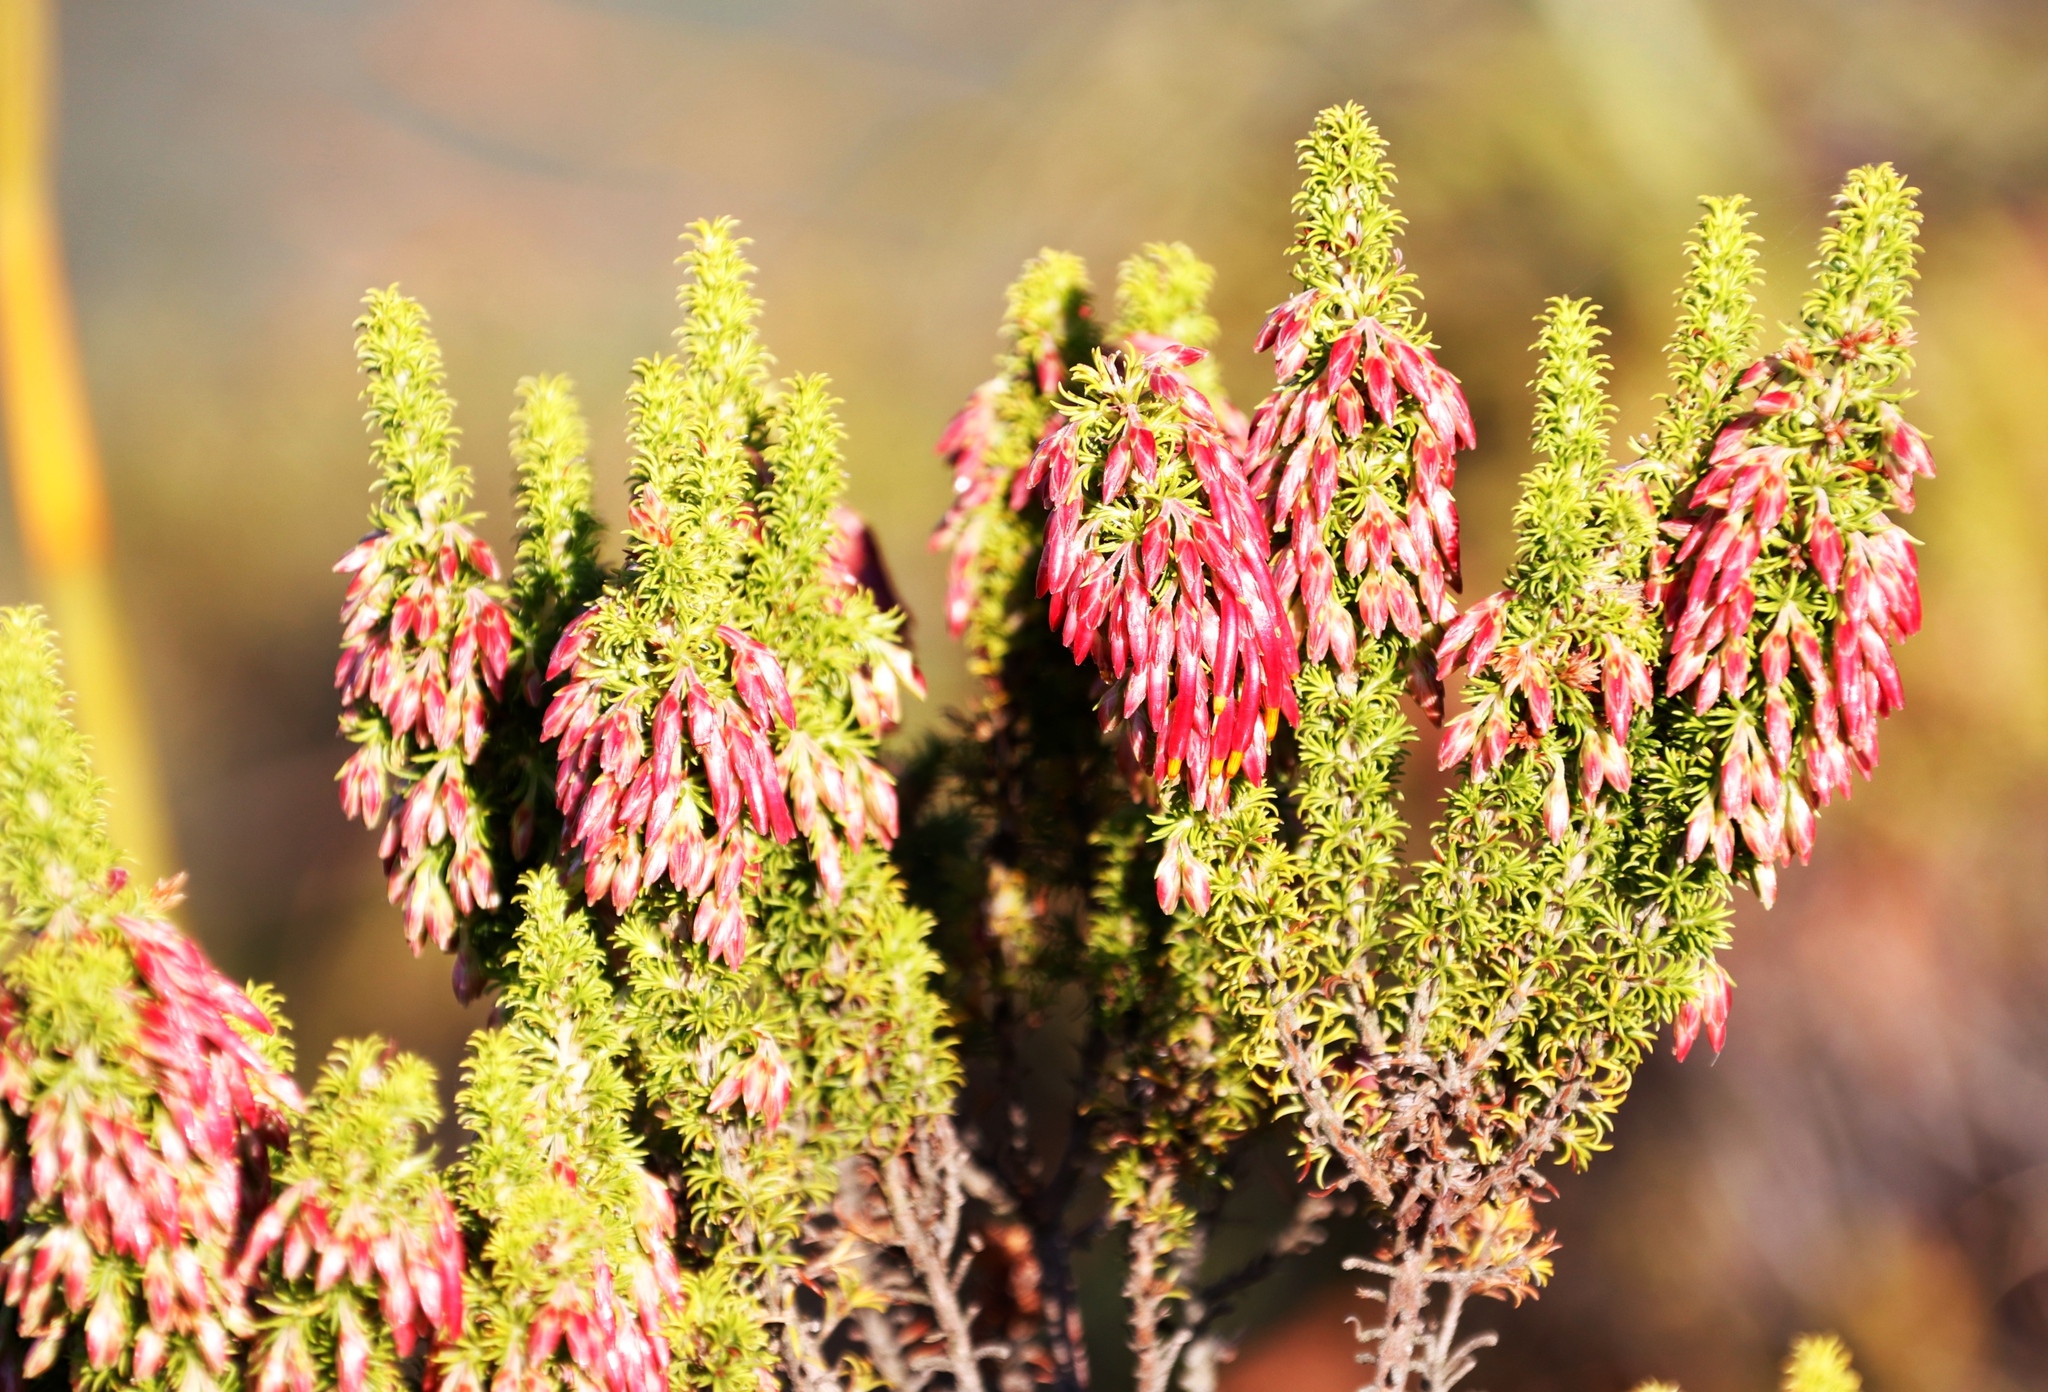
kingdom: Plantae
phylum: Tracheophyta
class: Magnoliopsida
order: Ericales
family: Ericaceae
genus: Erica
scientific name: Erica coccinea
